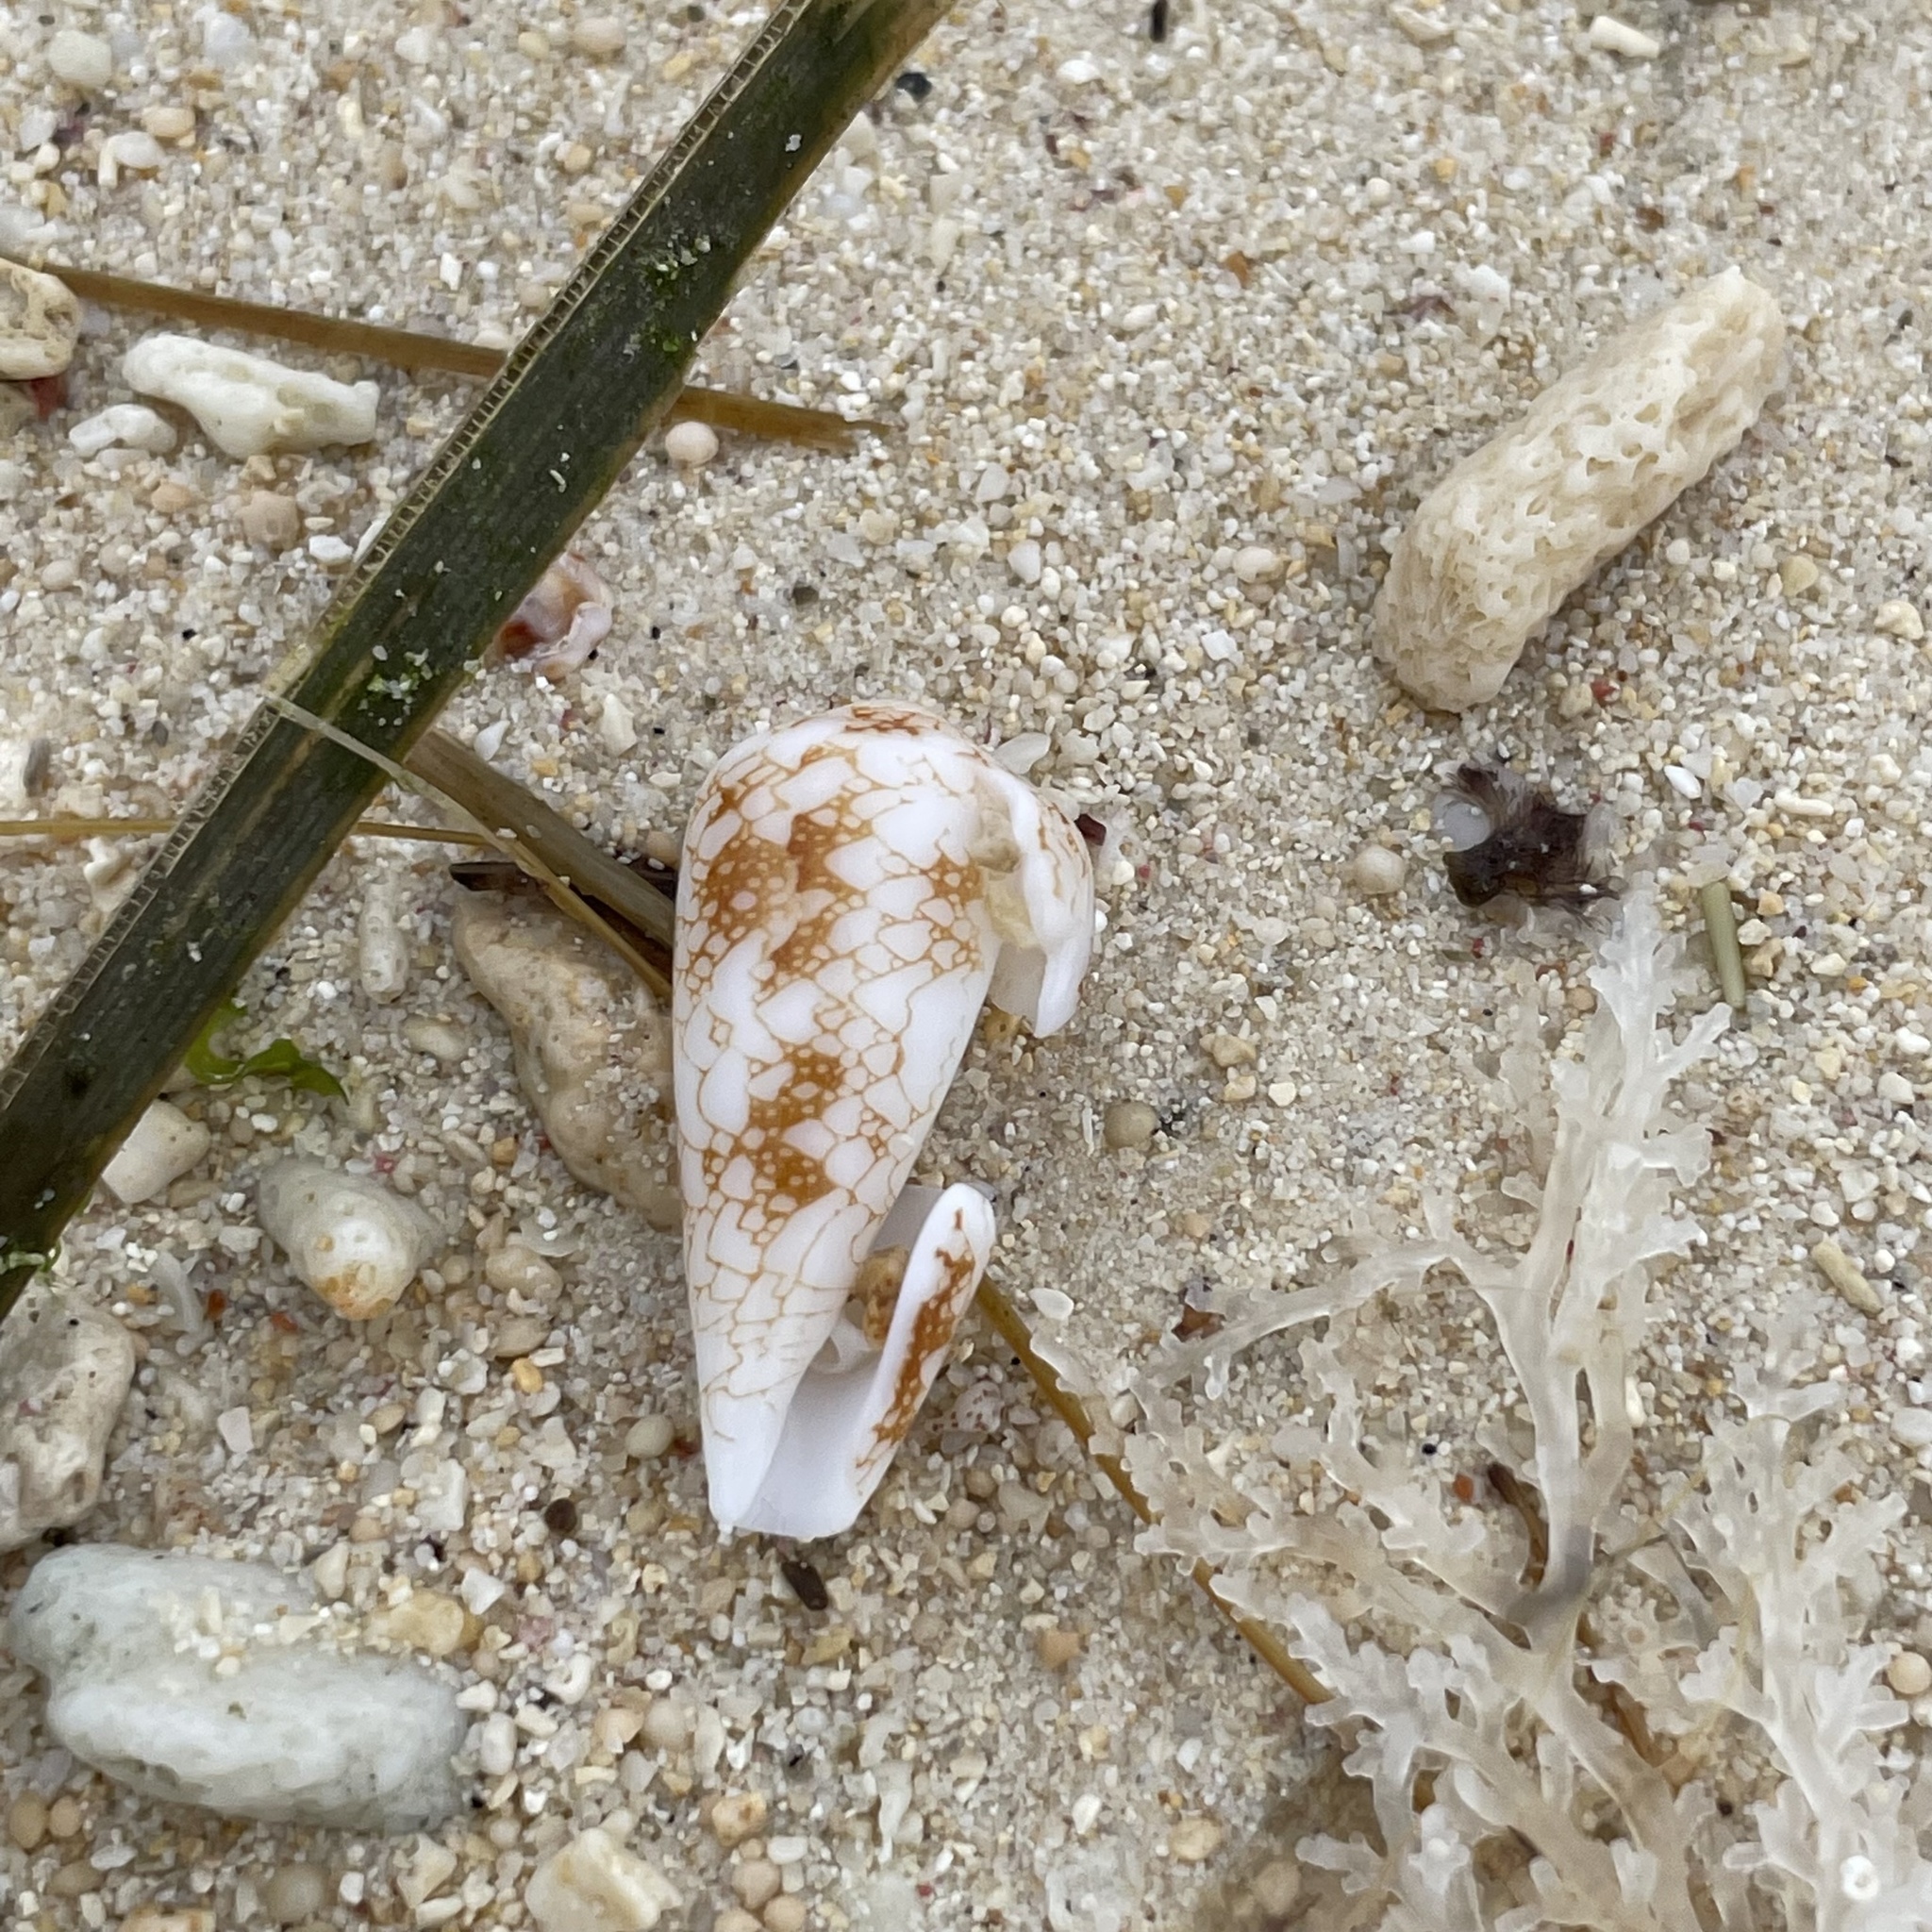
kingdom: Animalia
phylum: Mollusca
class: Gastropoda
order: Neogastropoda
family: Conidae
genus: Conus
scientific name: Conus omaria
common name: Omaria cone
